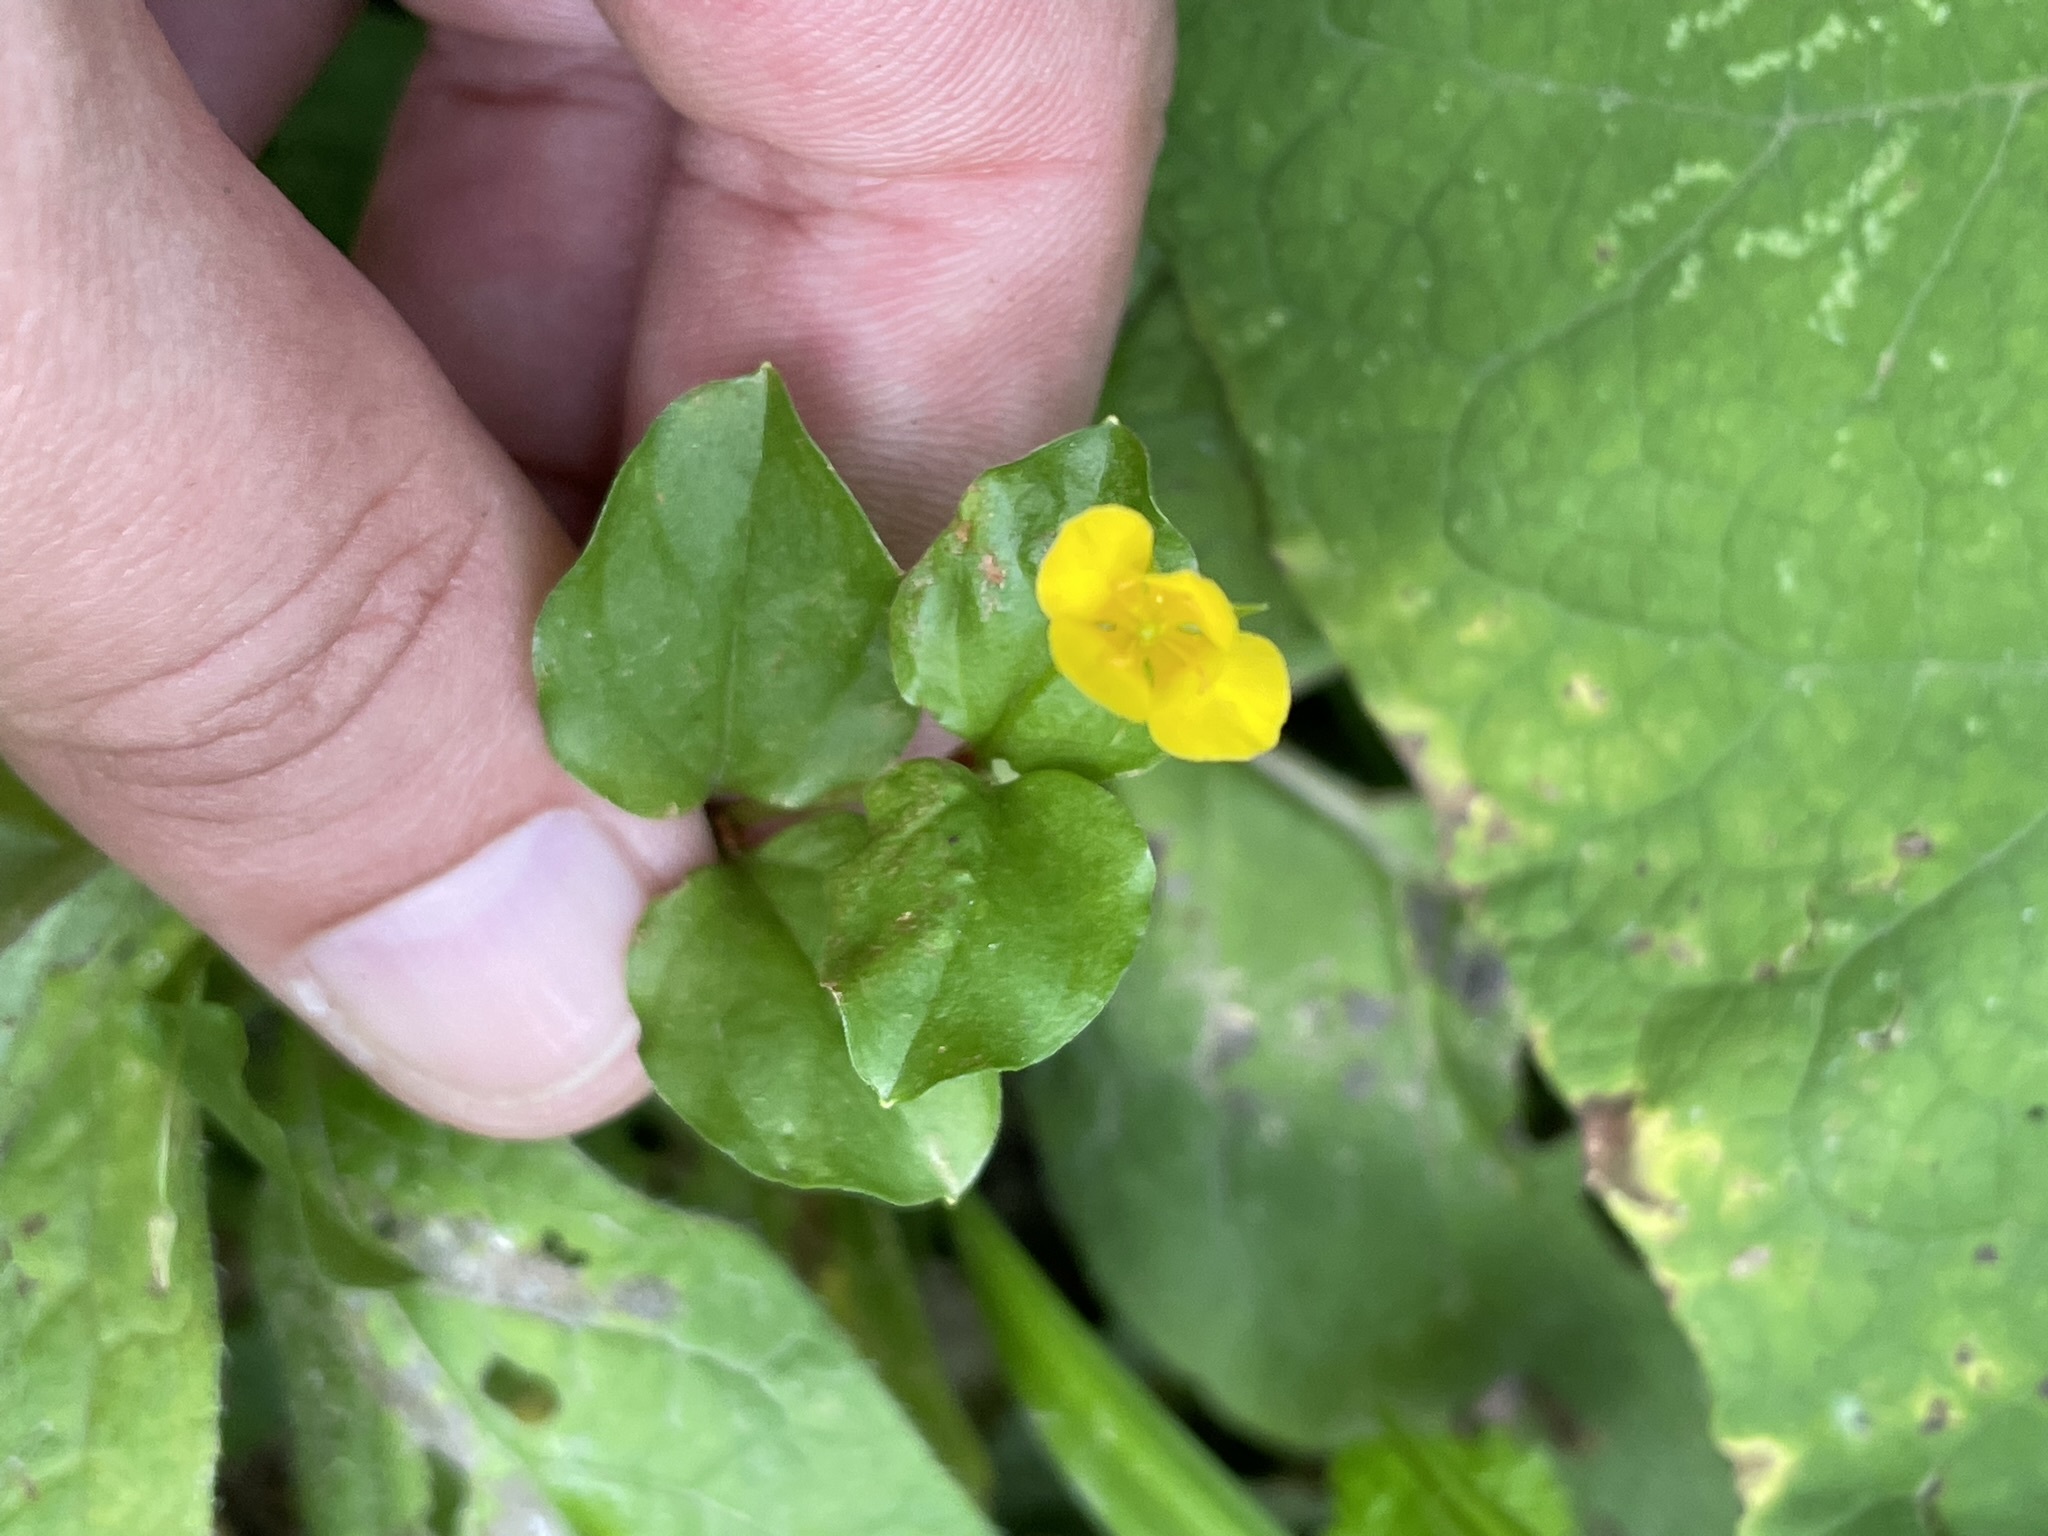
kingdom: Plantae
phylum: Tracheophyta
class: Magnoliopsida
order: Ericales
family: Primulaceae
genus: Lysimachia
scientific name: Lysimachia nemorum
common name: Yellow pimpernel
